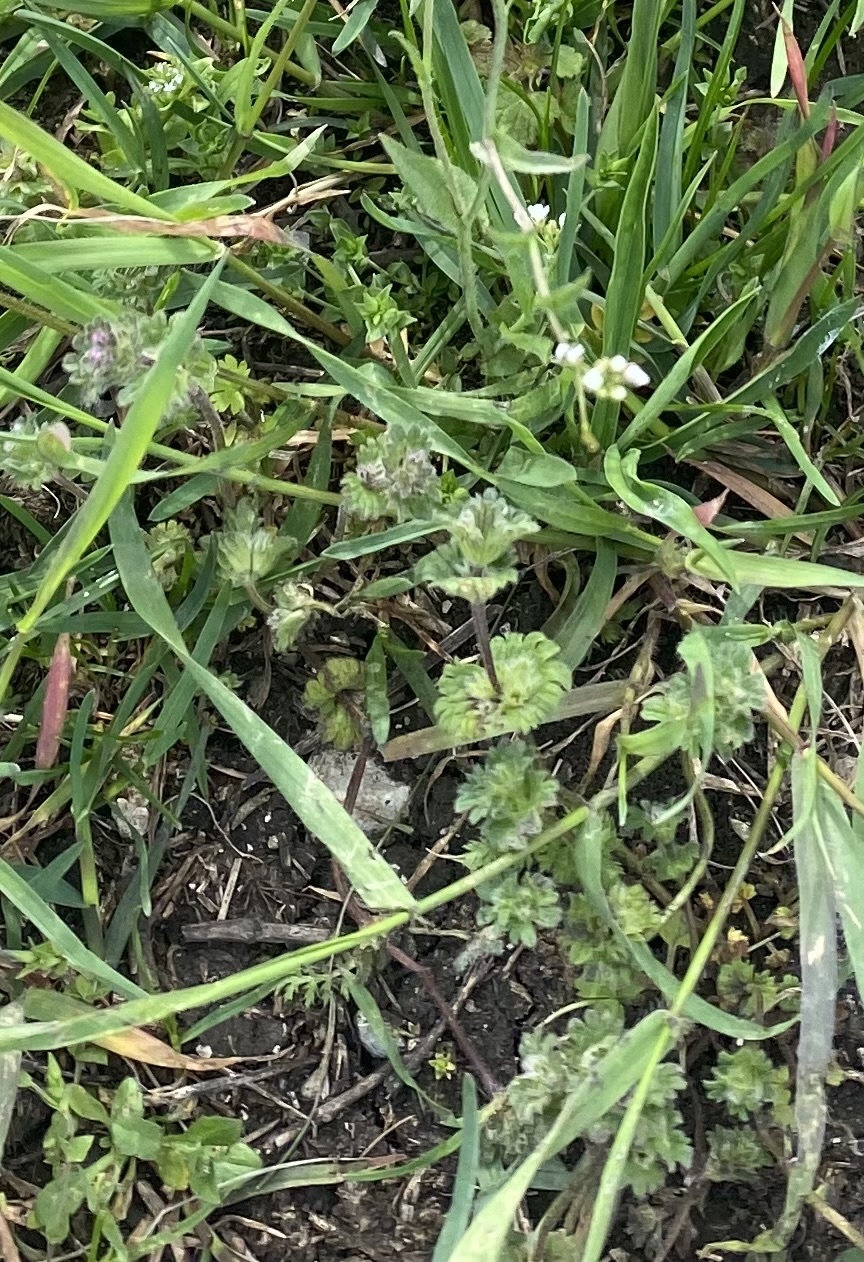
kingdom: Plantae
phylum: Tracheophyta
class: Magnoliopsida
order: Lamiales
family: Lamiaceae
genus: Lamium
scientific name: Lamium amplexicaule
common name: Henbit dead-nettle
